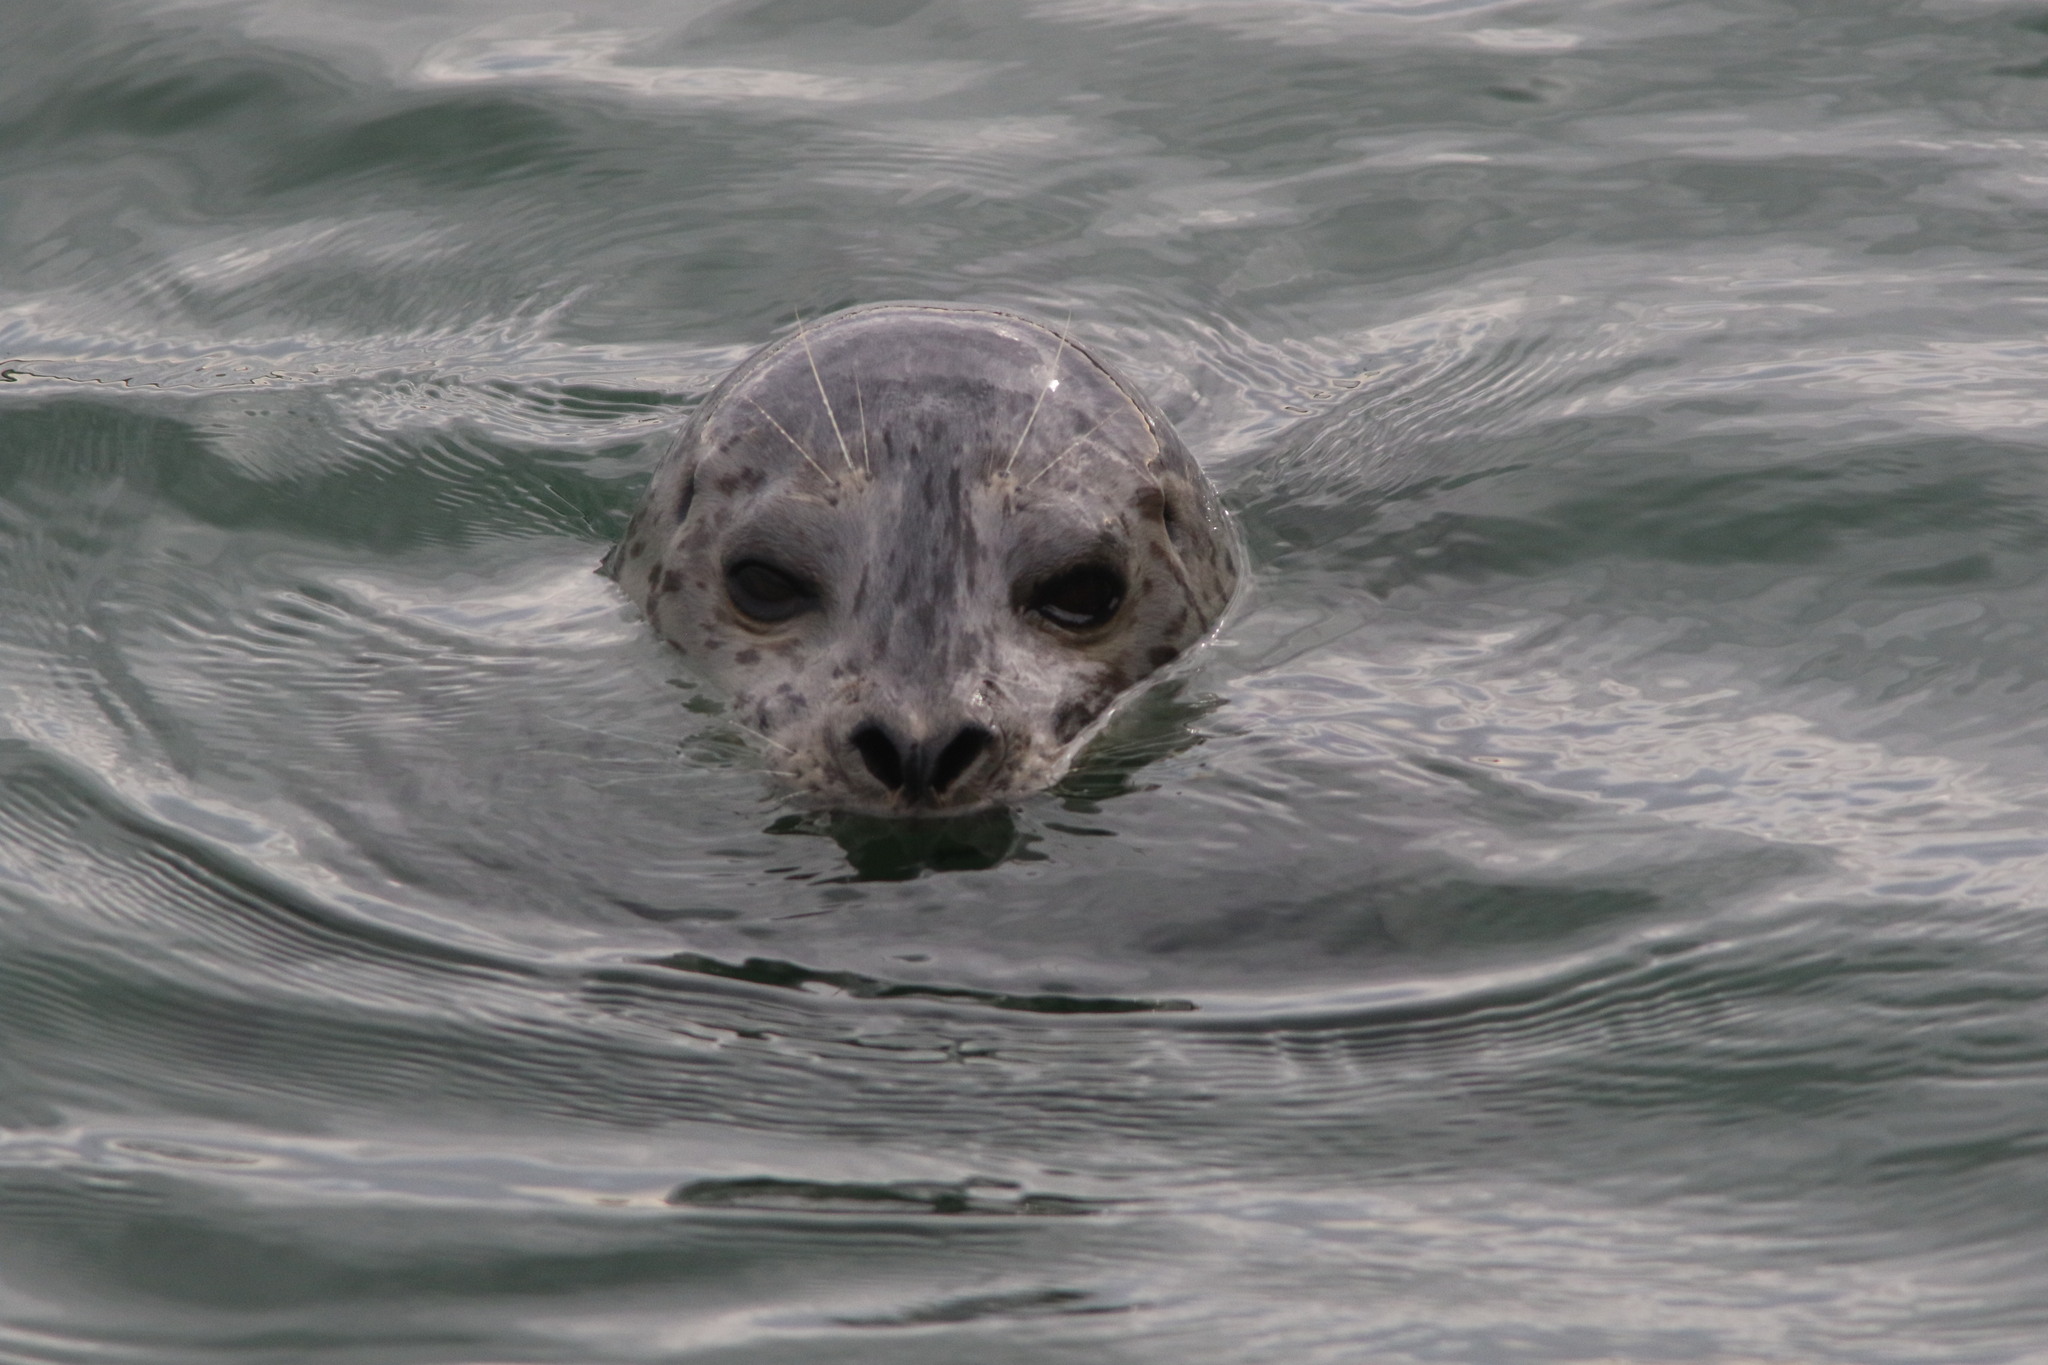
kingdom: Animalia
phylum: Chordata
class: Mammalia
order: Carnivora
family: Phocidae
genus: Phoca
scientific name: Phoca vitulina
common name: Harbor seal
